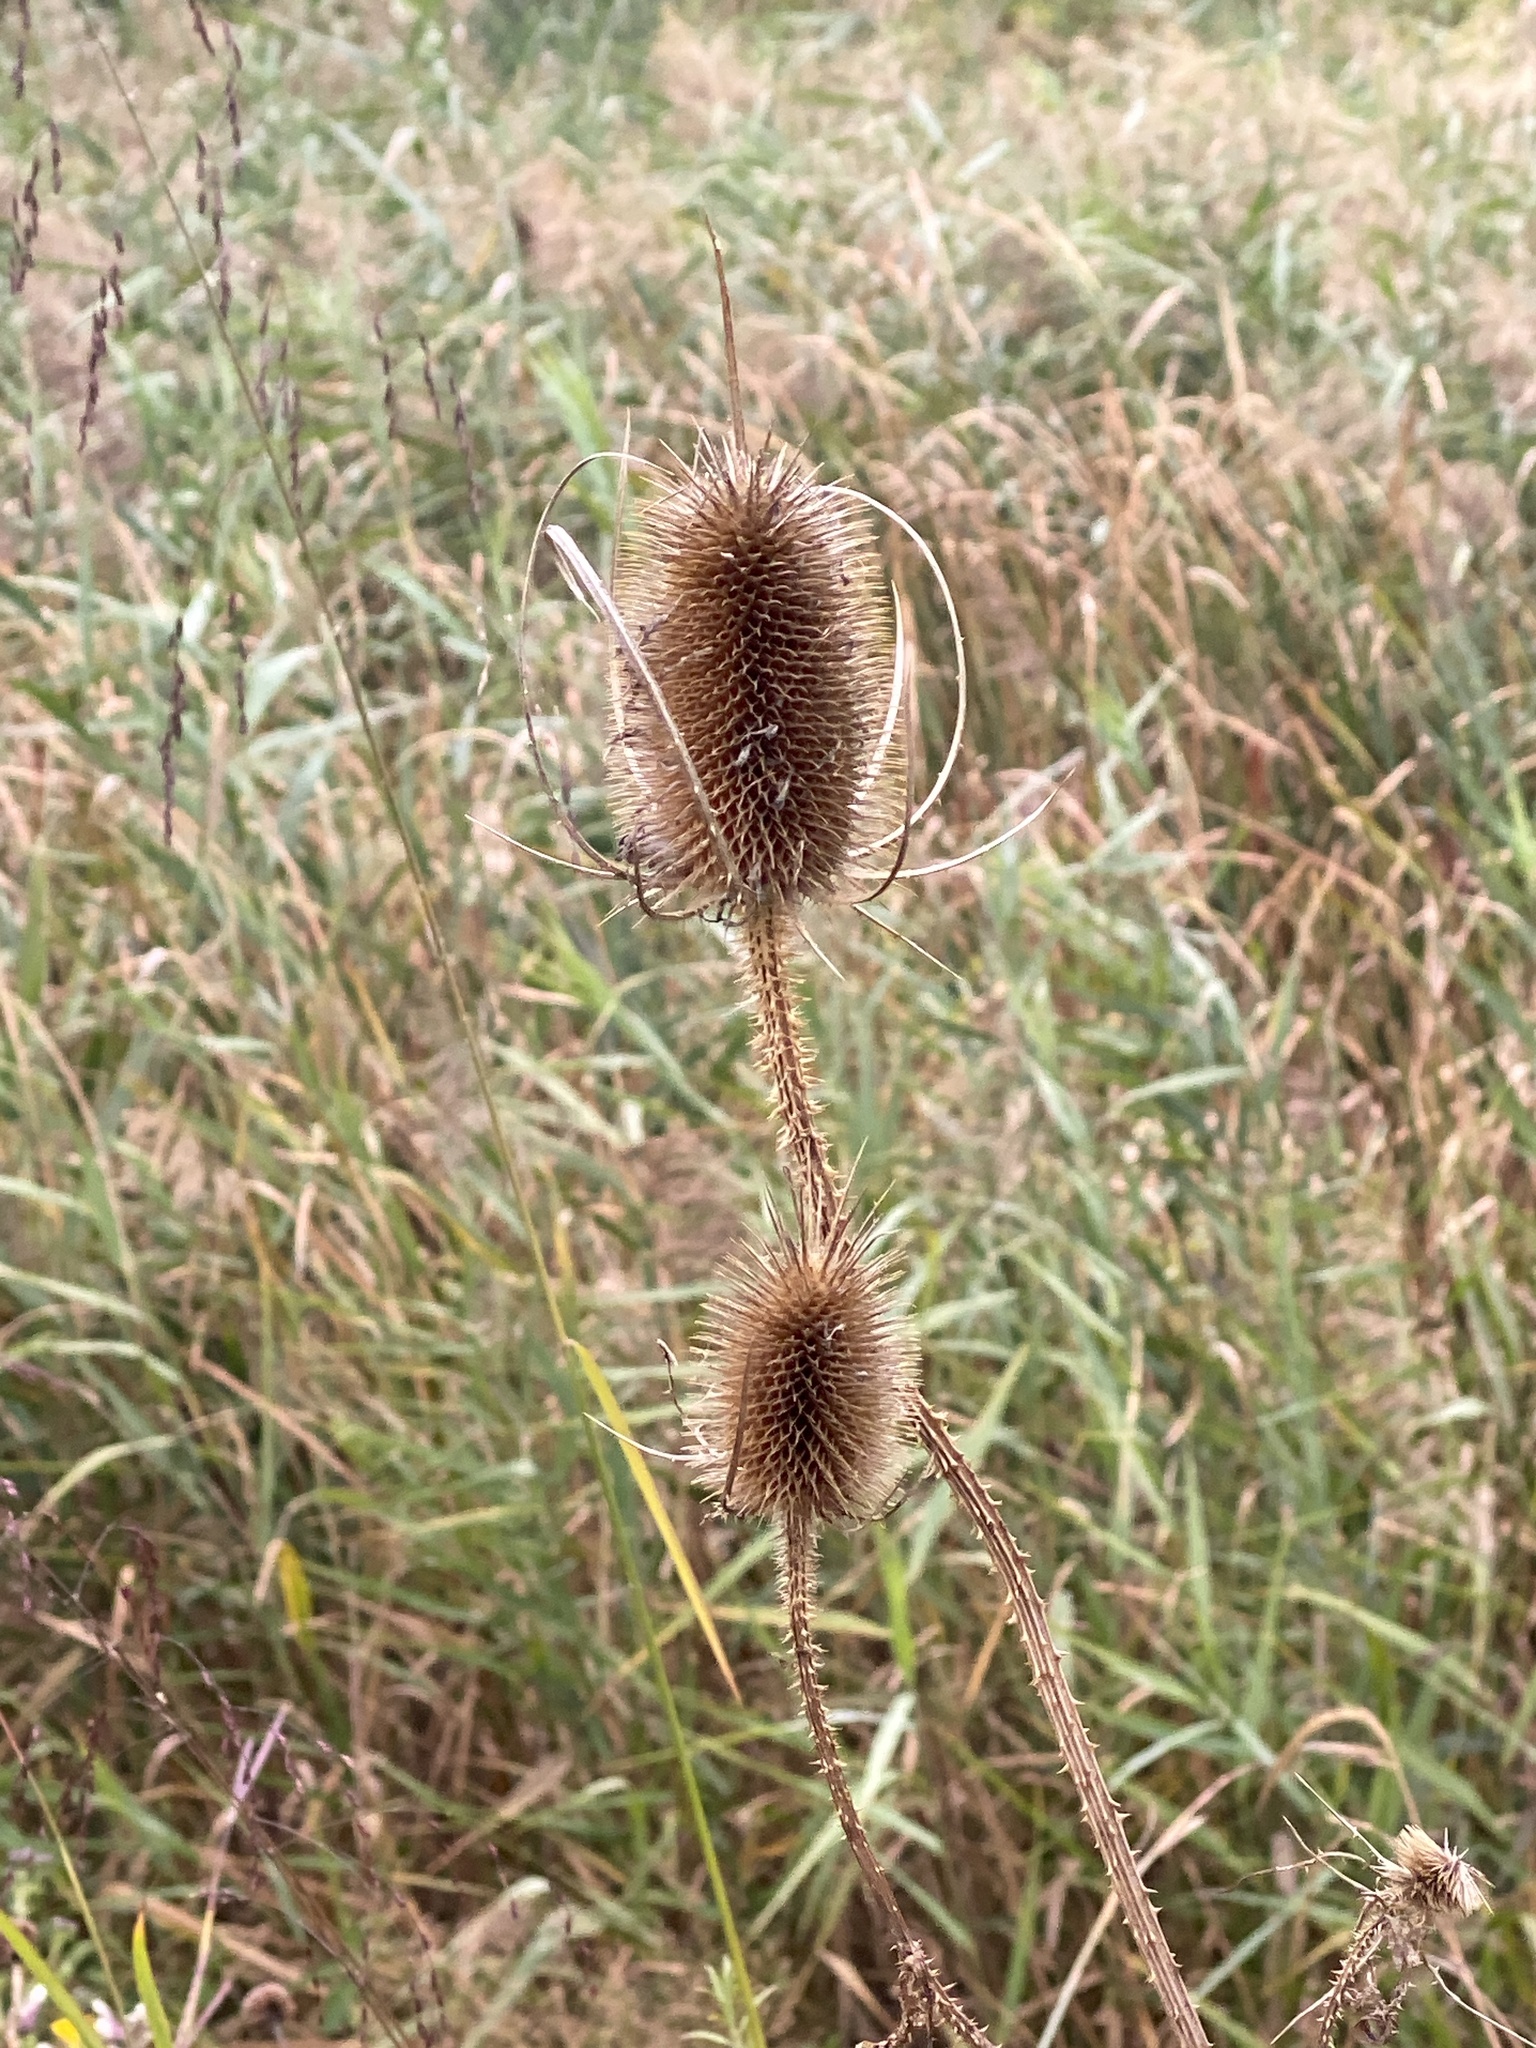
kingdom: Plantae
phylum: Tracheophyta
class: Magnoliopsida
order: Dipsacales
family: Caprifoliaceae
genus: Dipsacus
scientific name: Dipsacus fullonum
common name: Teasel
